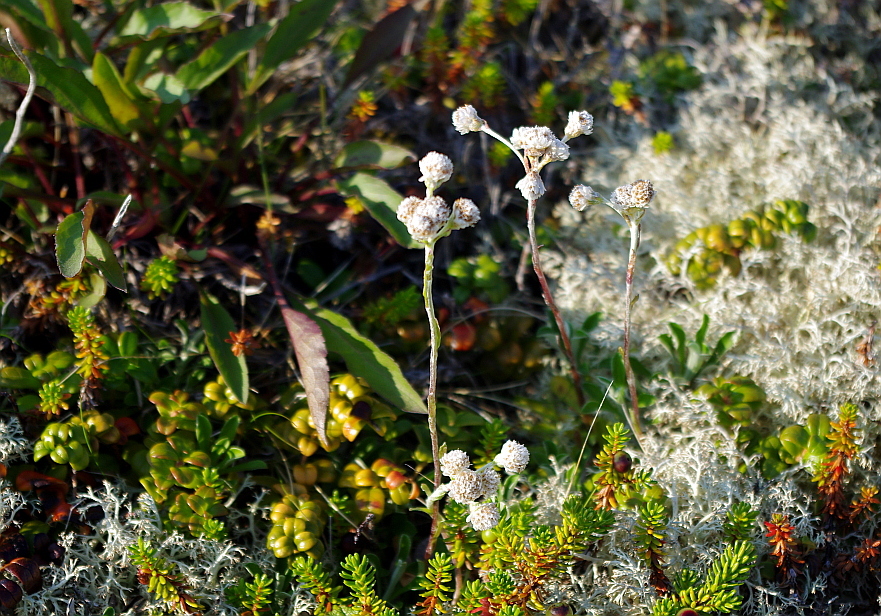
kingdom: Plantae
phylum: Tracheophyta
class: Magnoliopsida
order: Asterales
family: Asteraceae
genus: Antennaria
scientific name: Antennaria dioica
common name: Mountain everlasting
